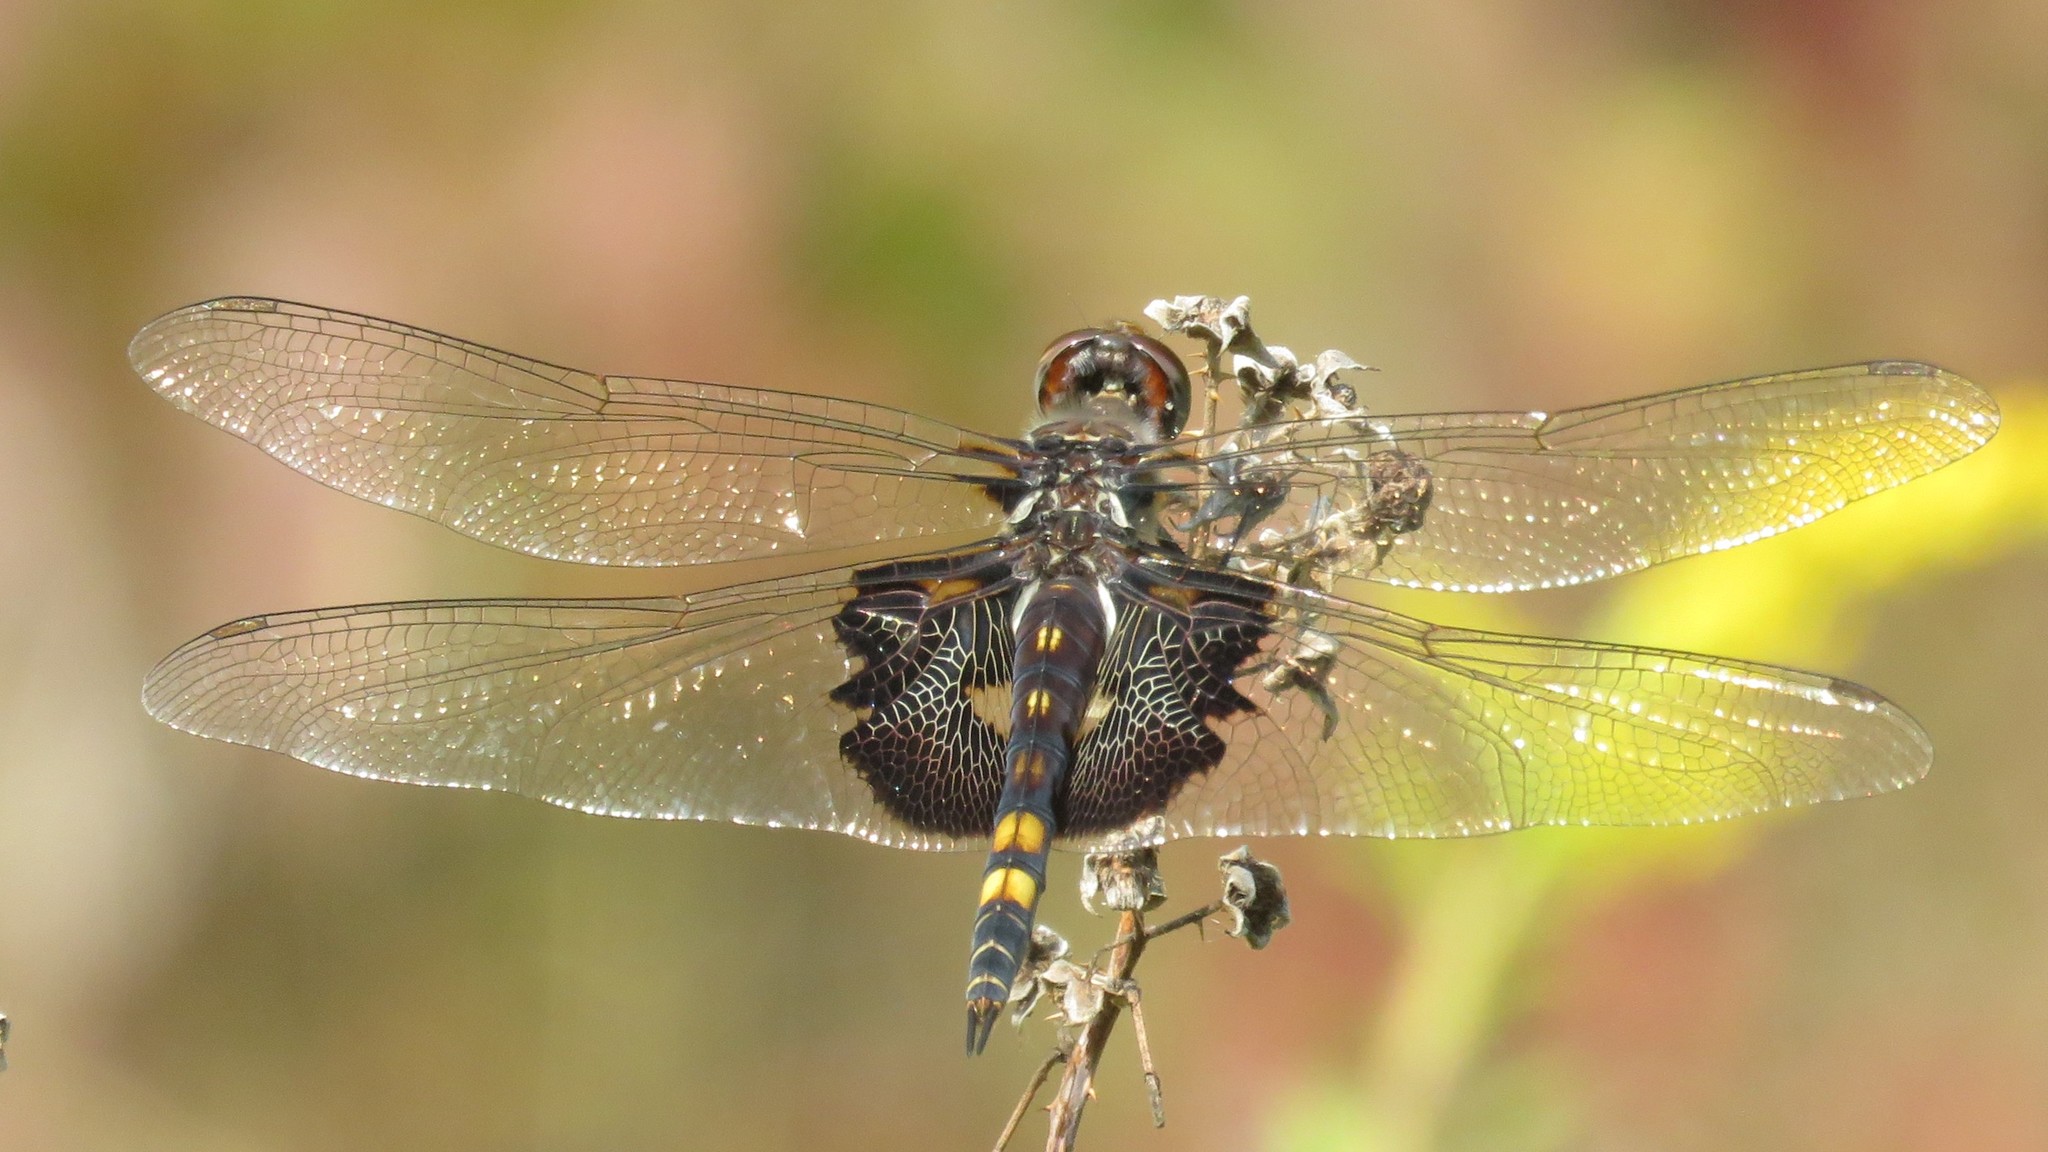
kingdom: Animalia
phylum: Arthropoda
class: Insecta
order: Odonata
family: Libellulidae
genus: Tramea
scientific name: Tramea lacerata
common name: Black saddlebags
